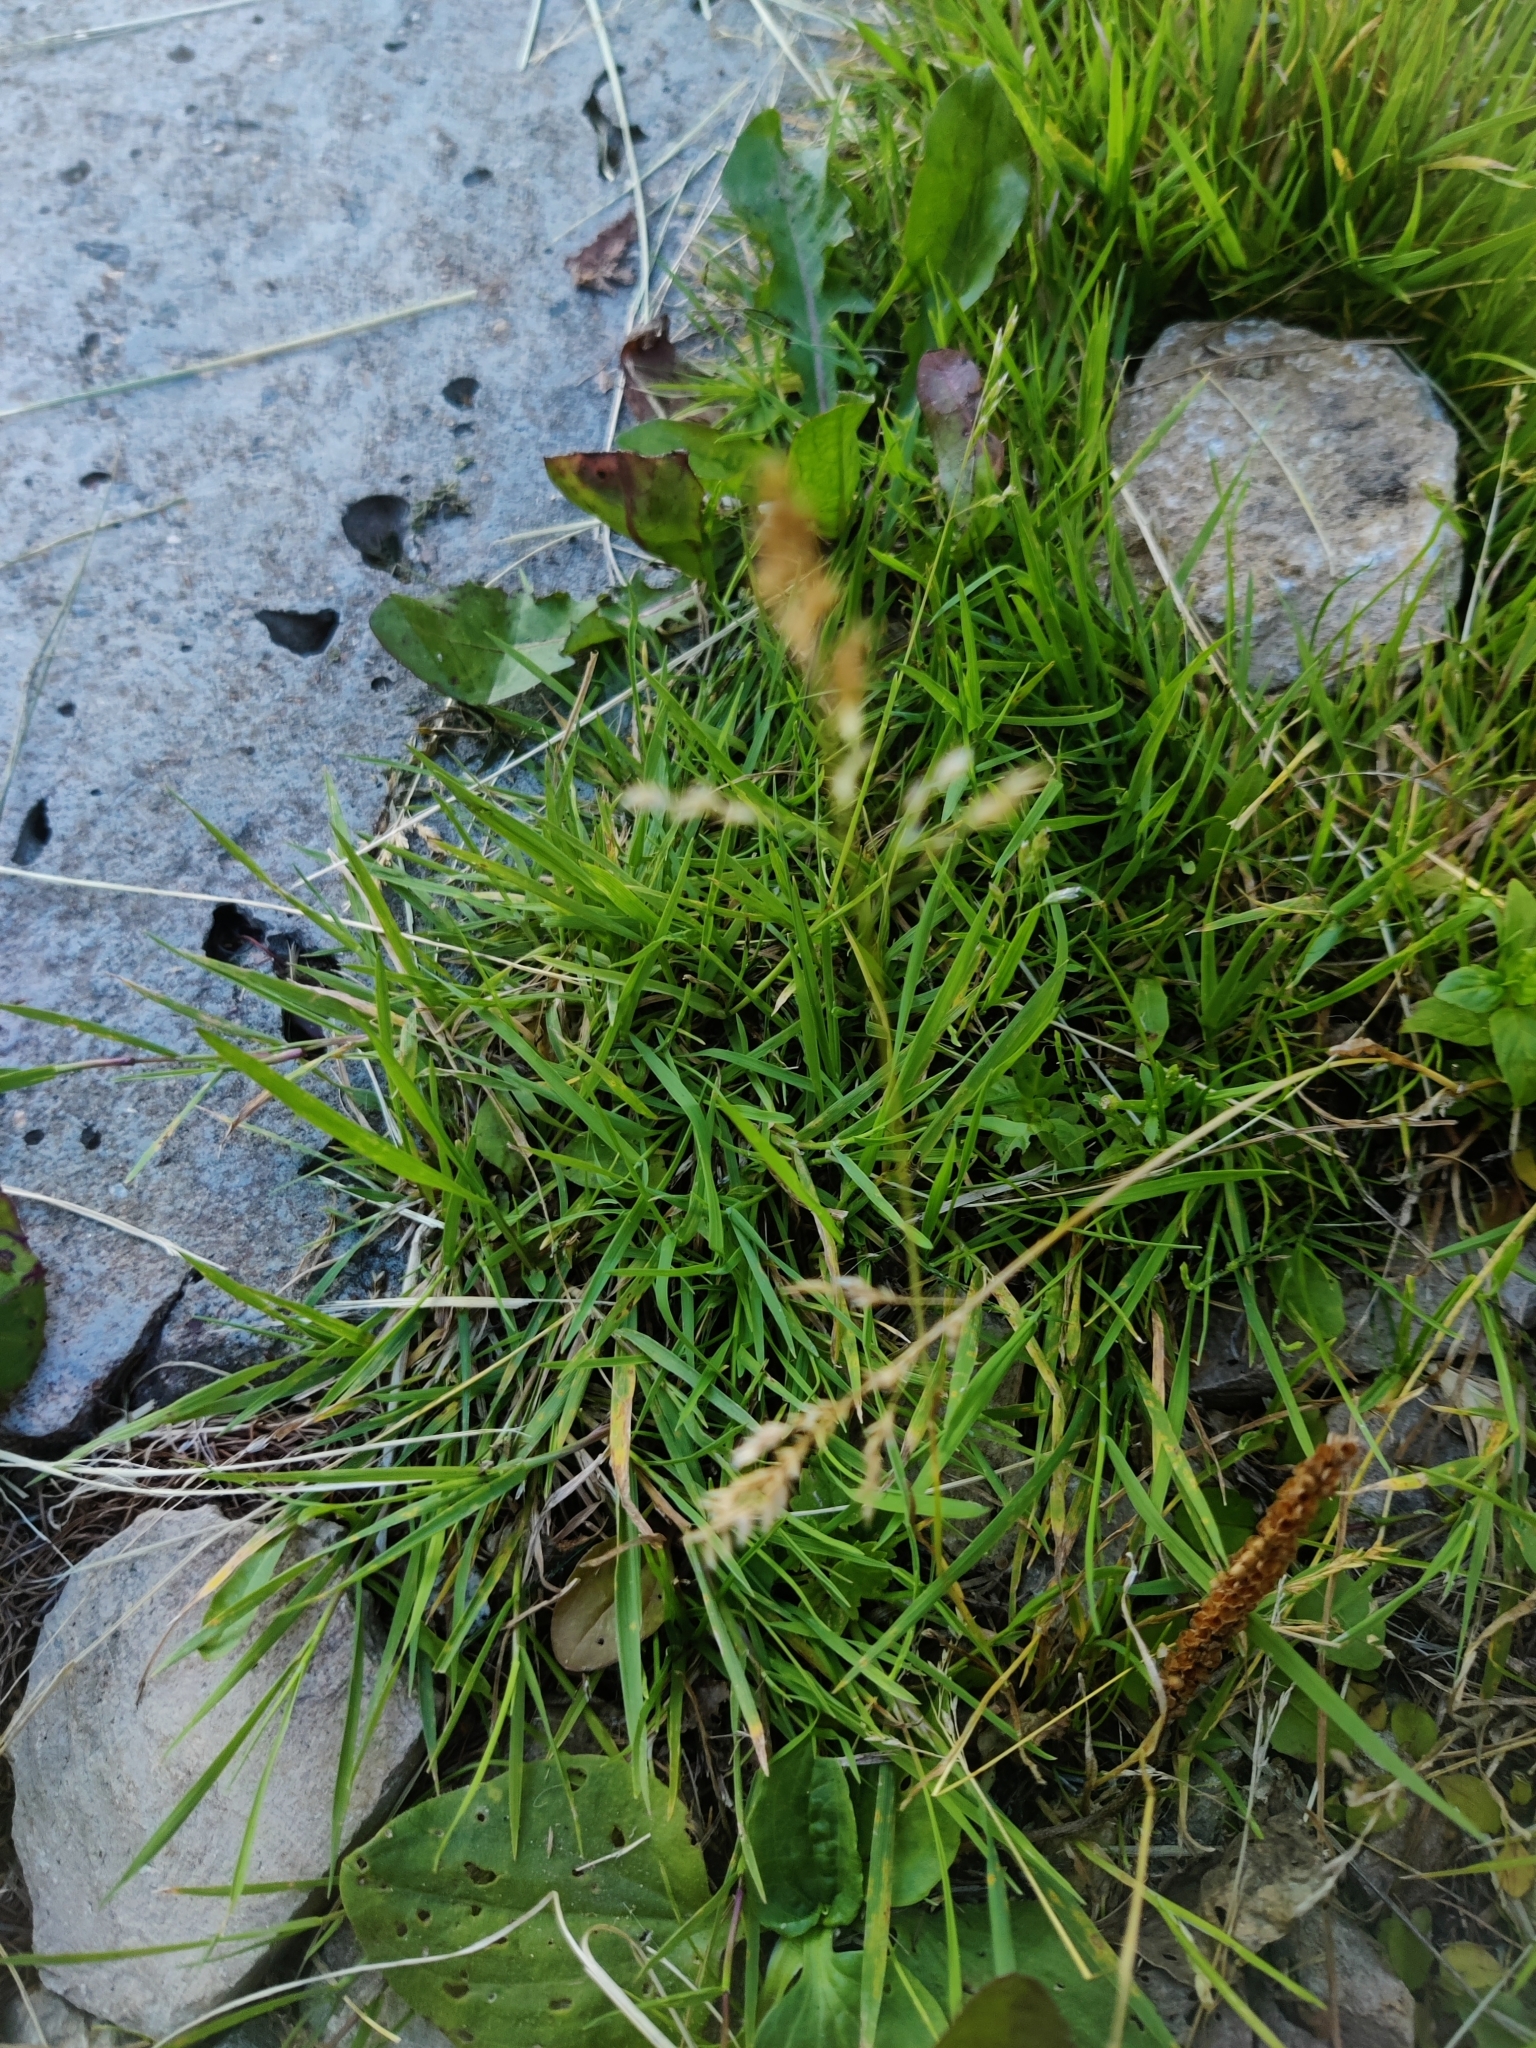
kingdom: Plantae
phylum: Tracheophyta
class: Liliopsida
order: Poales
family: Poaceae
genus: Poa
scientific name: Poa annua
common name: Annual bluegrass
